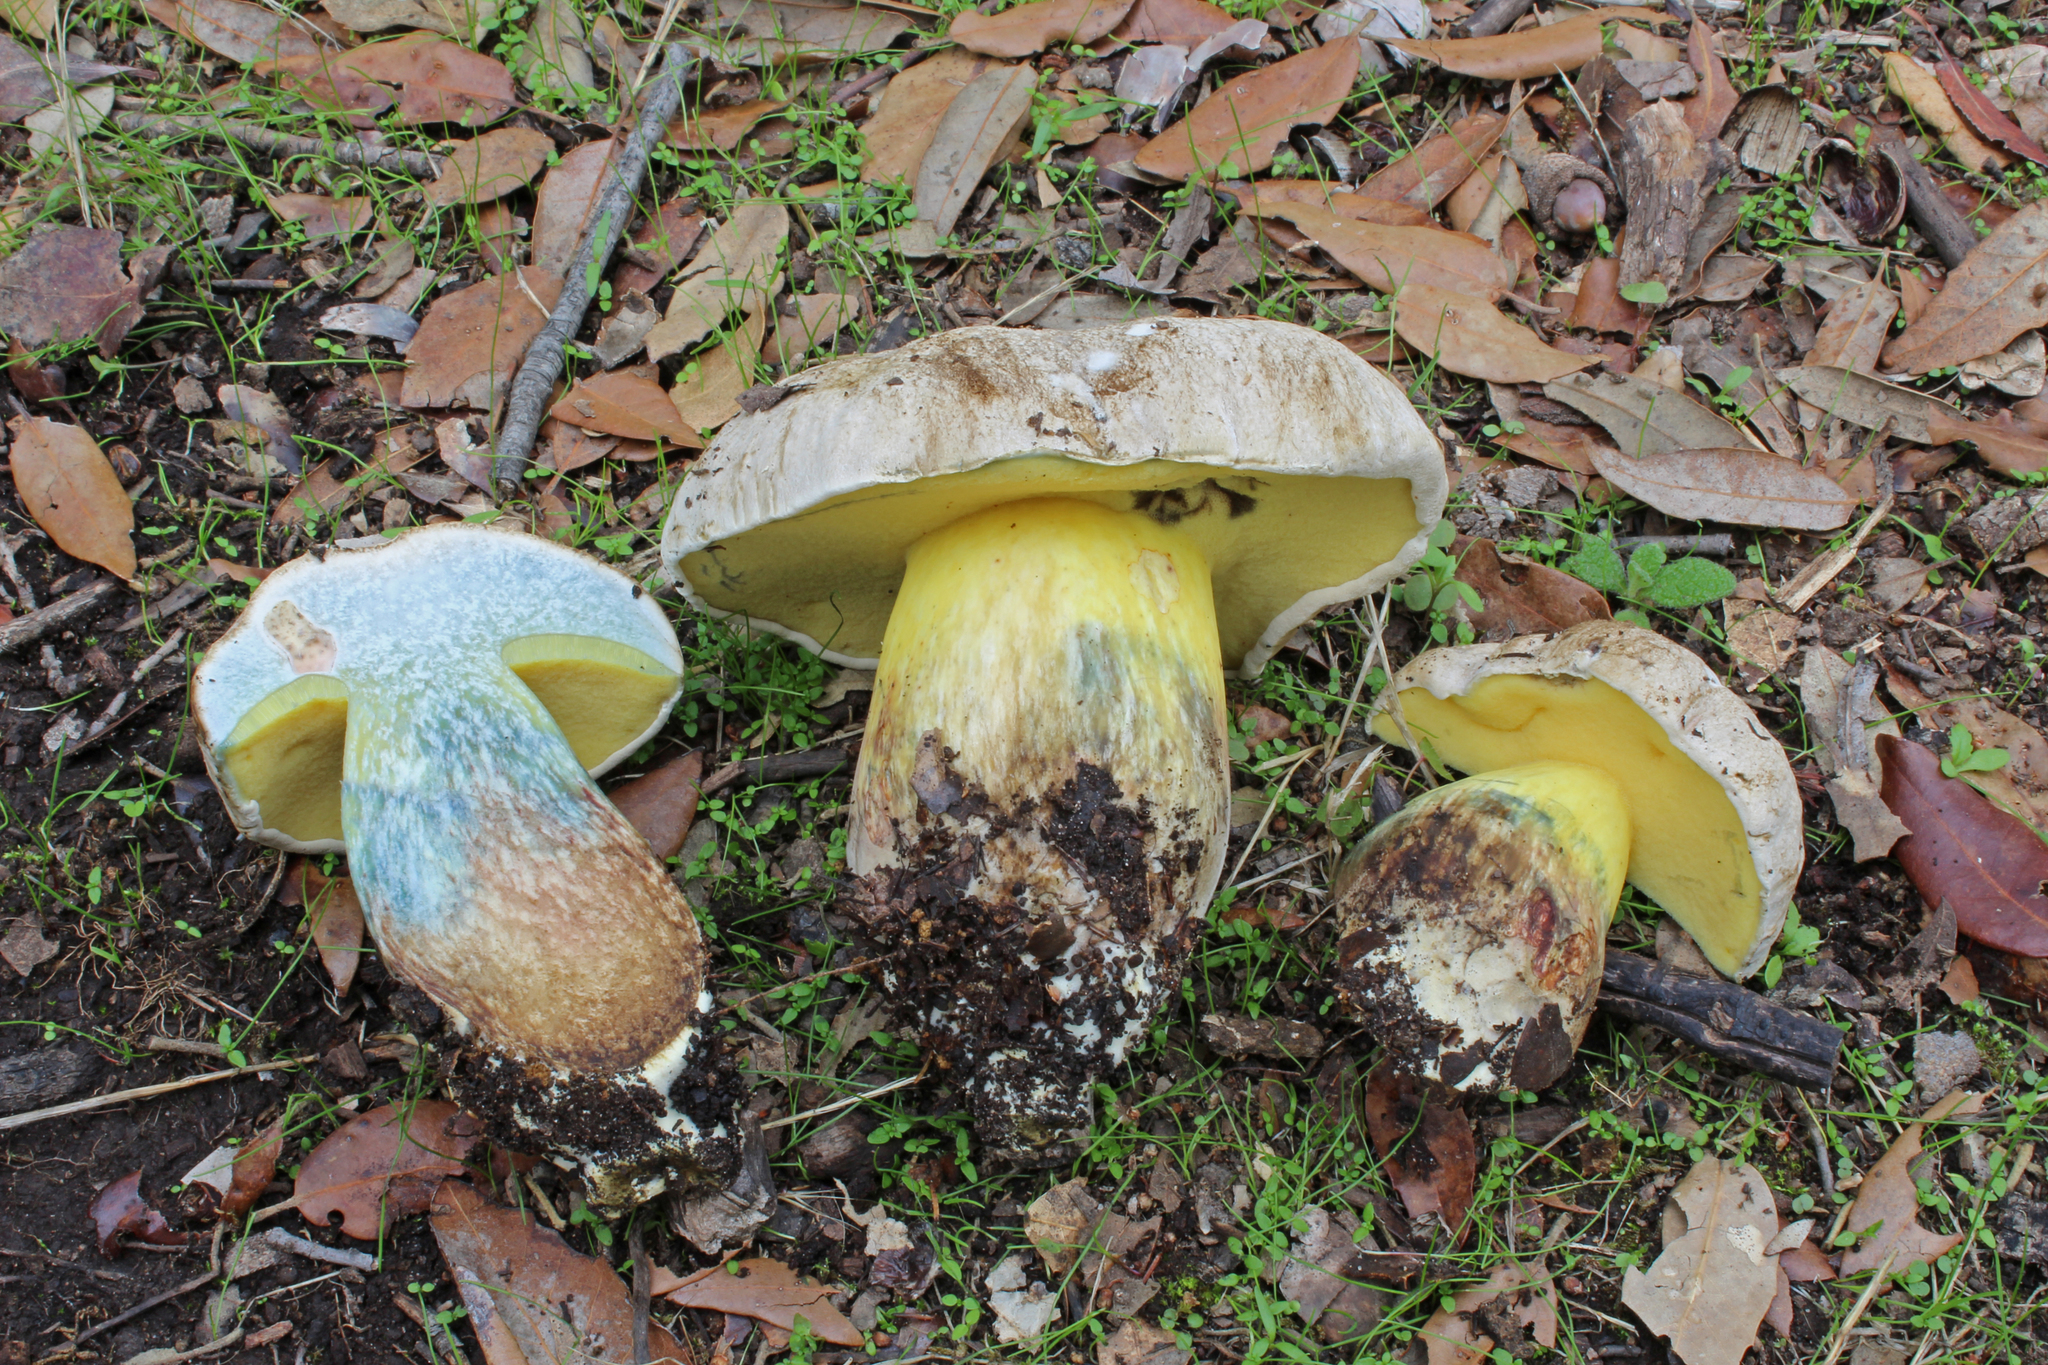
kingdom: Fungi
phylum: Basidiomycota
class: Agaricomycetes
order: Boletales
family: Boletaceae
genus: Caloboletus
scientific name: Caloboletus radicans
